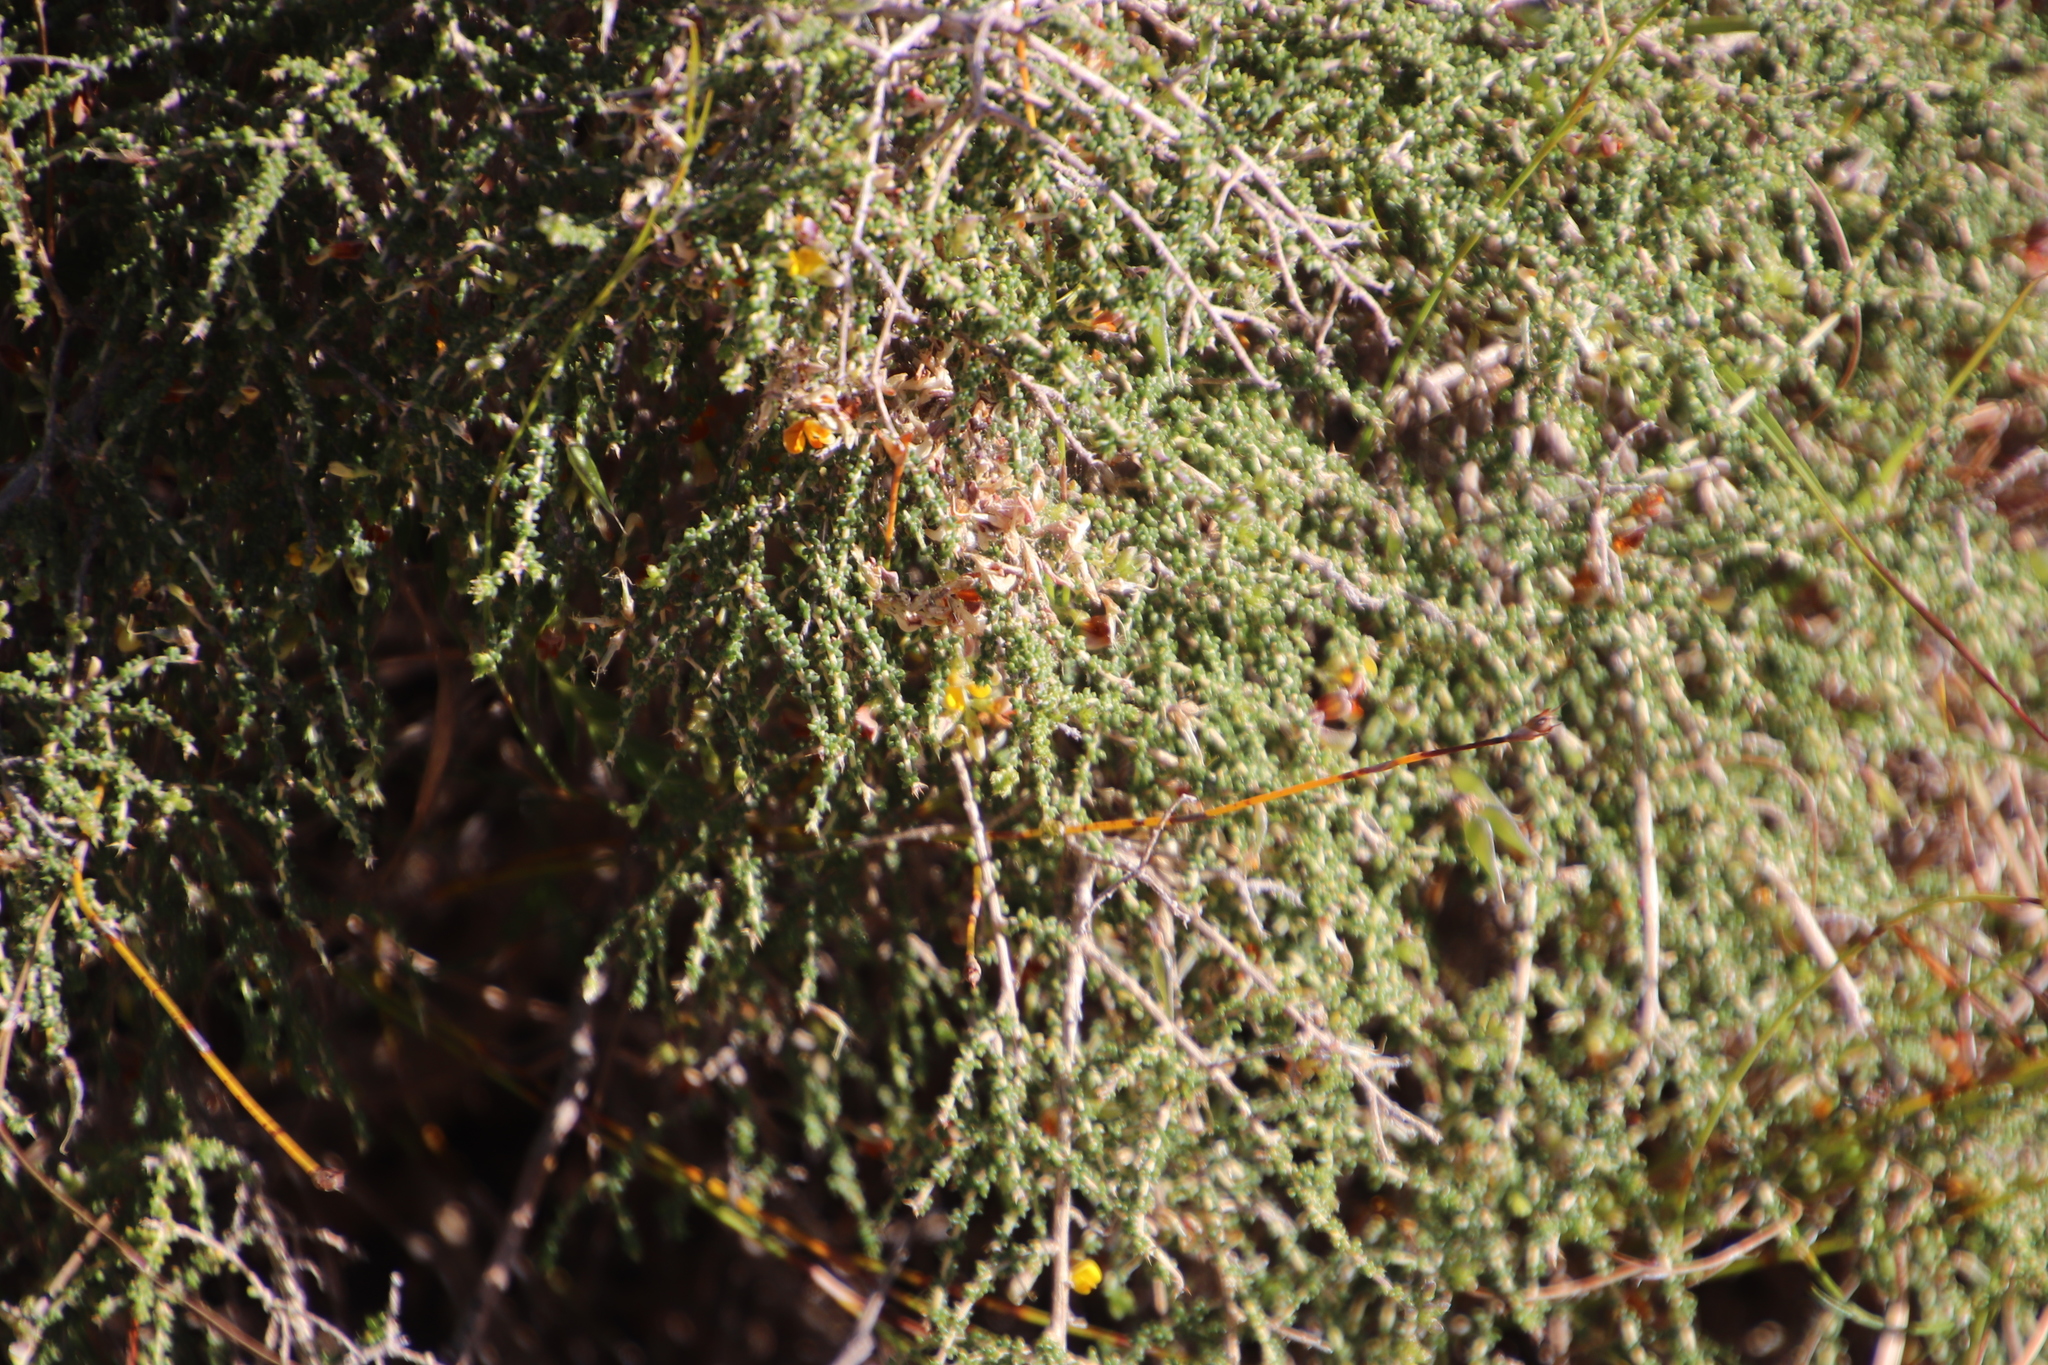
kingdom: Plantae
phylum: Tracheophyta
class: Magnoliopsida
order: Fabales
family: Fabaceae
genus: Aspalathus
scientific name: Aspalathus divaricata
